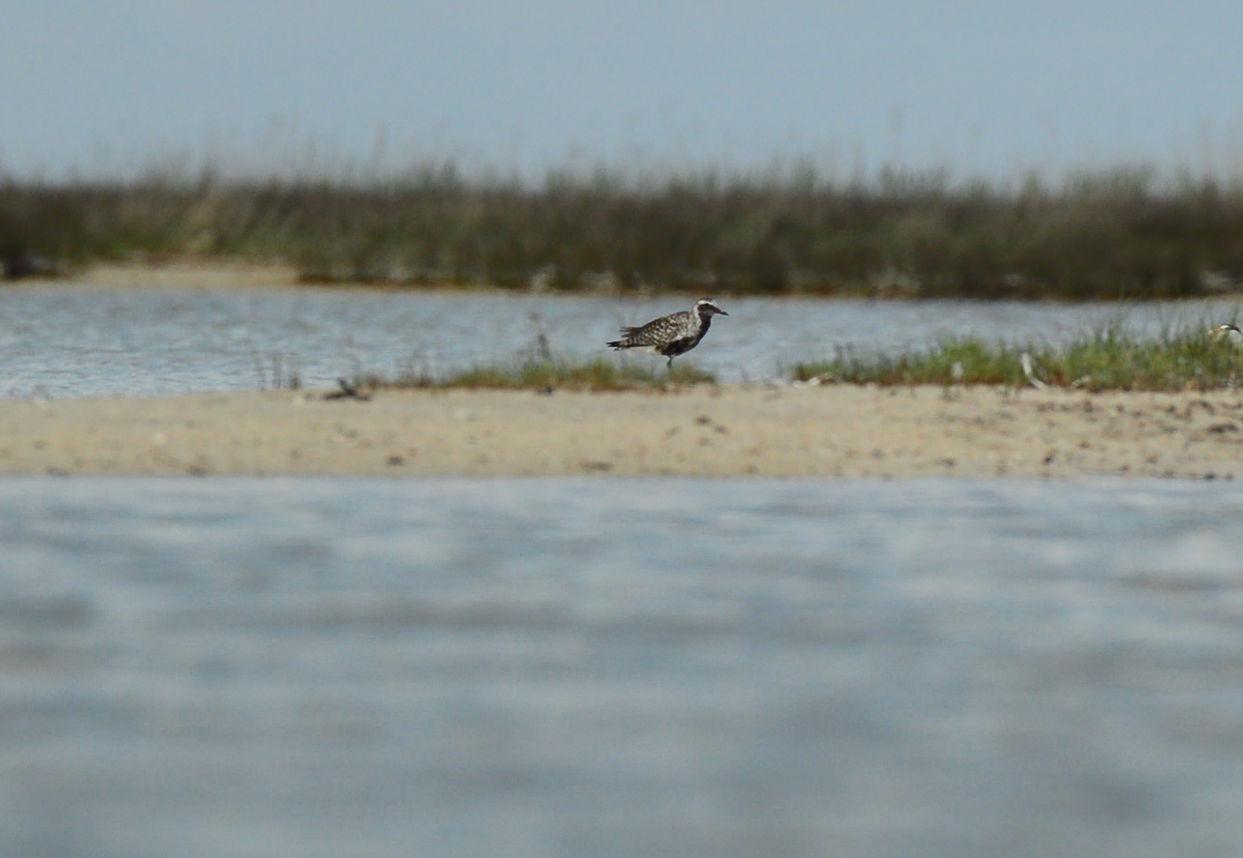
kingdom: Animalia
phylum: Chordata
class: Aves
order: Charadriiformes
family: Charadriidae
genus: Pluvialis
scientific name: Pluvialis apricaria
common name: European golden plover
